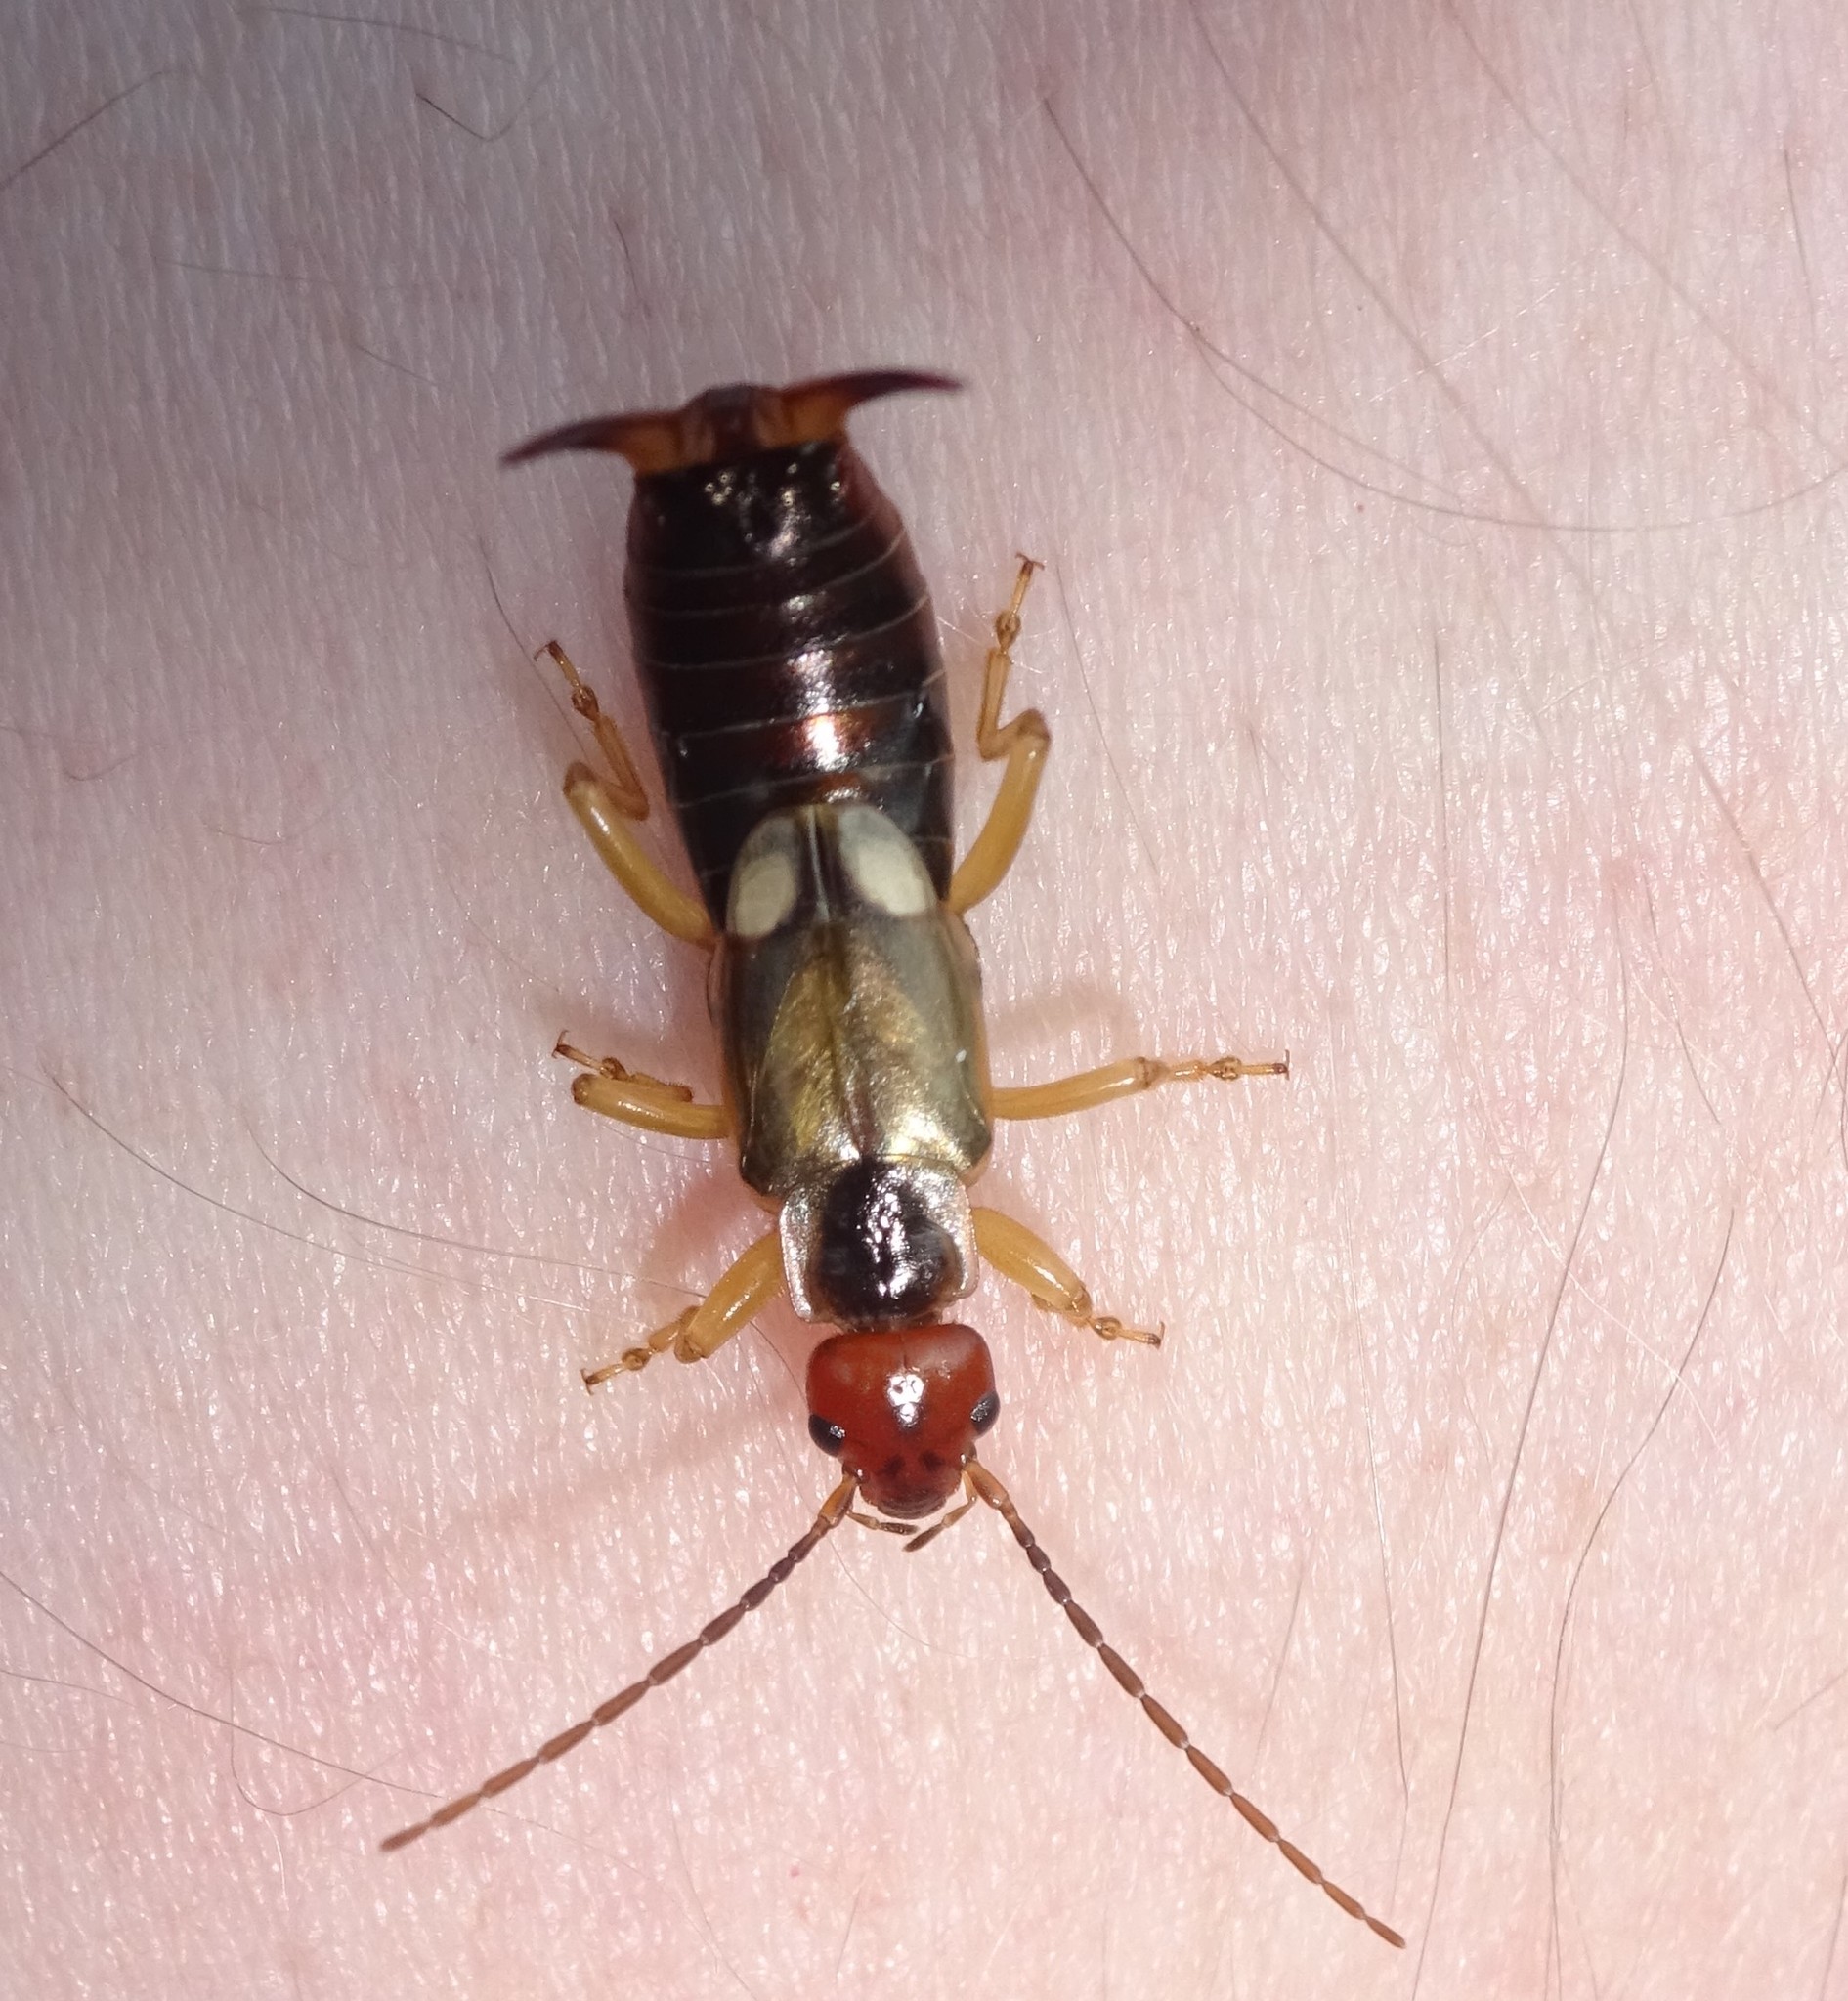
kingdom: Animalia
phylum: Arthropoda
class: Insecta
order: Dermaptera
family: Forficulidae
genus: Forficula
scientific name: Forficula
